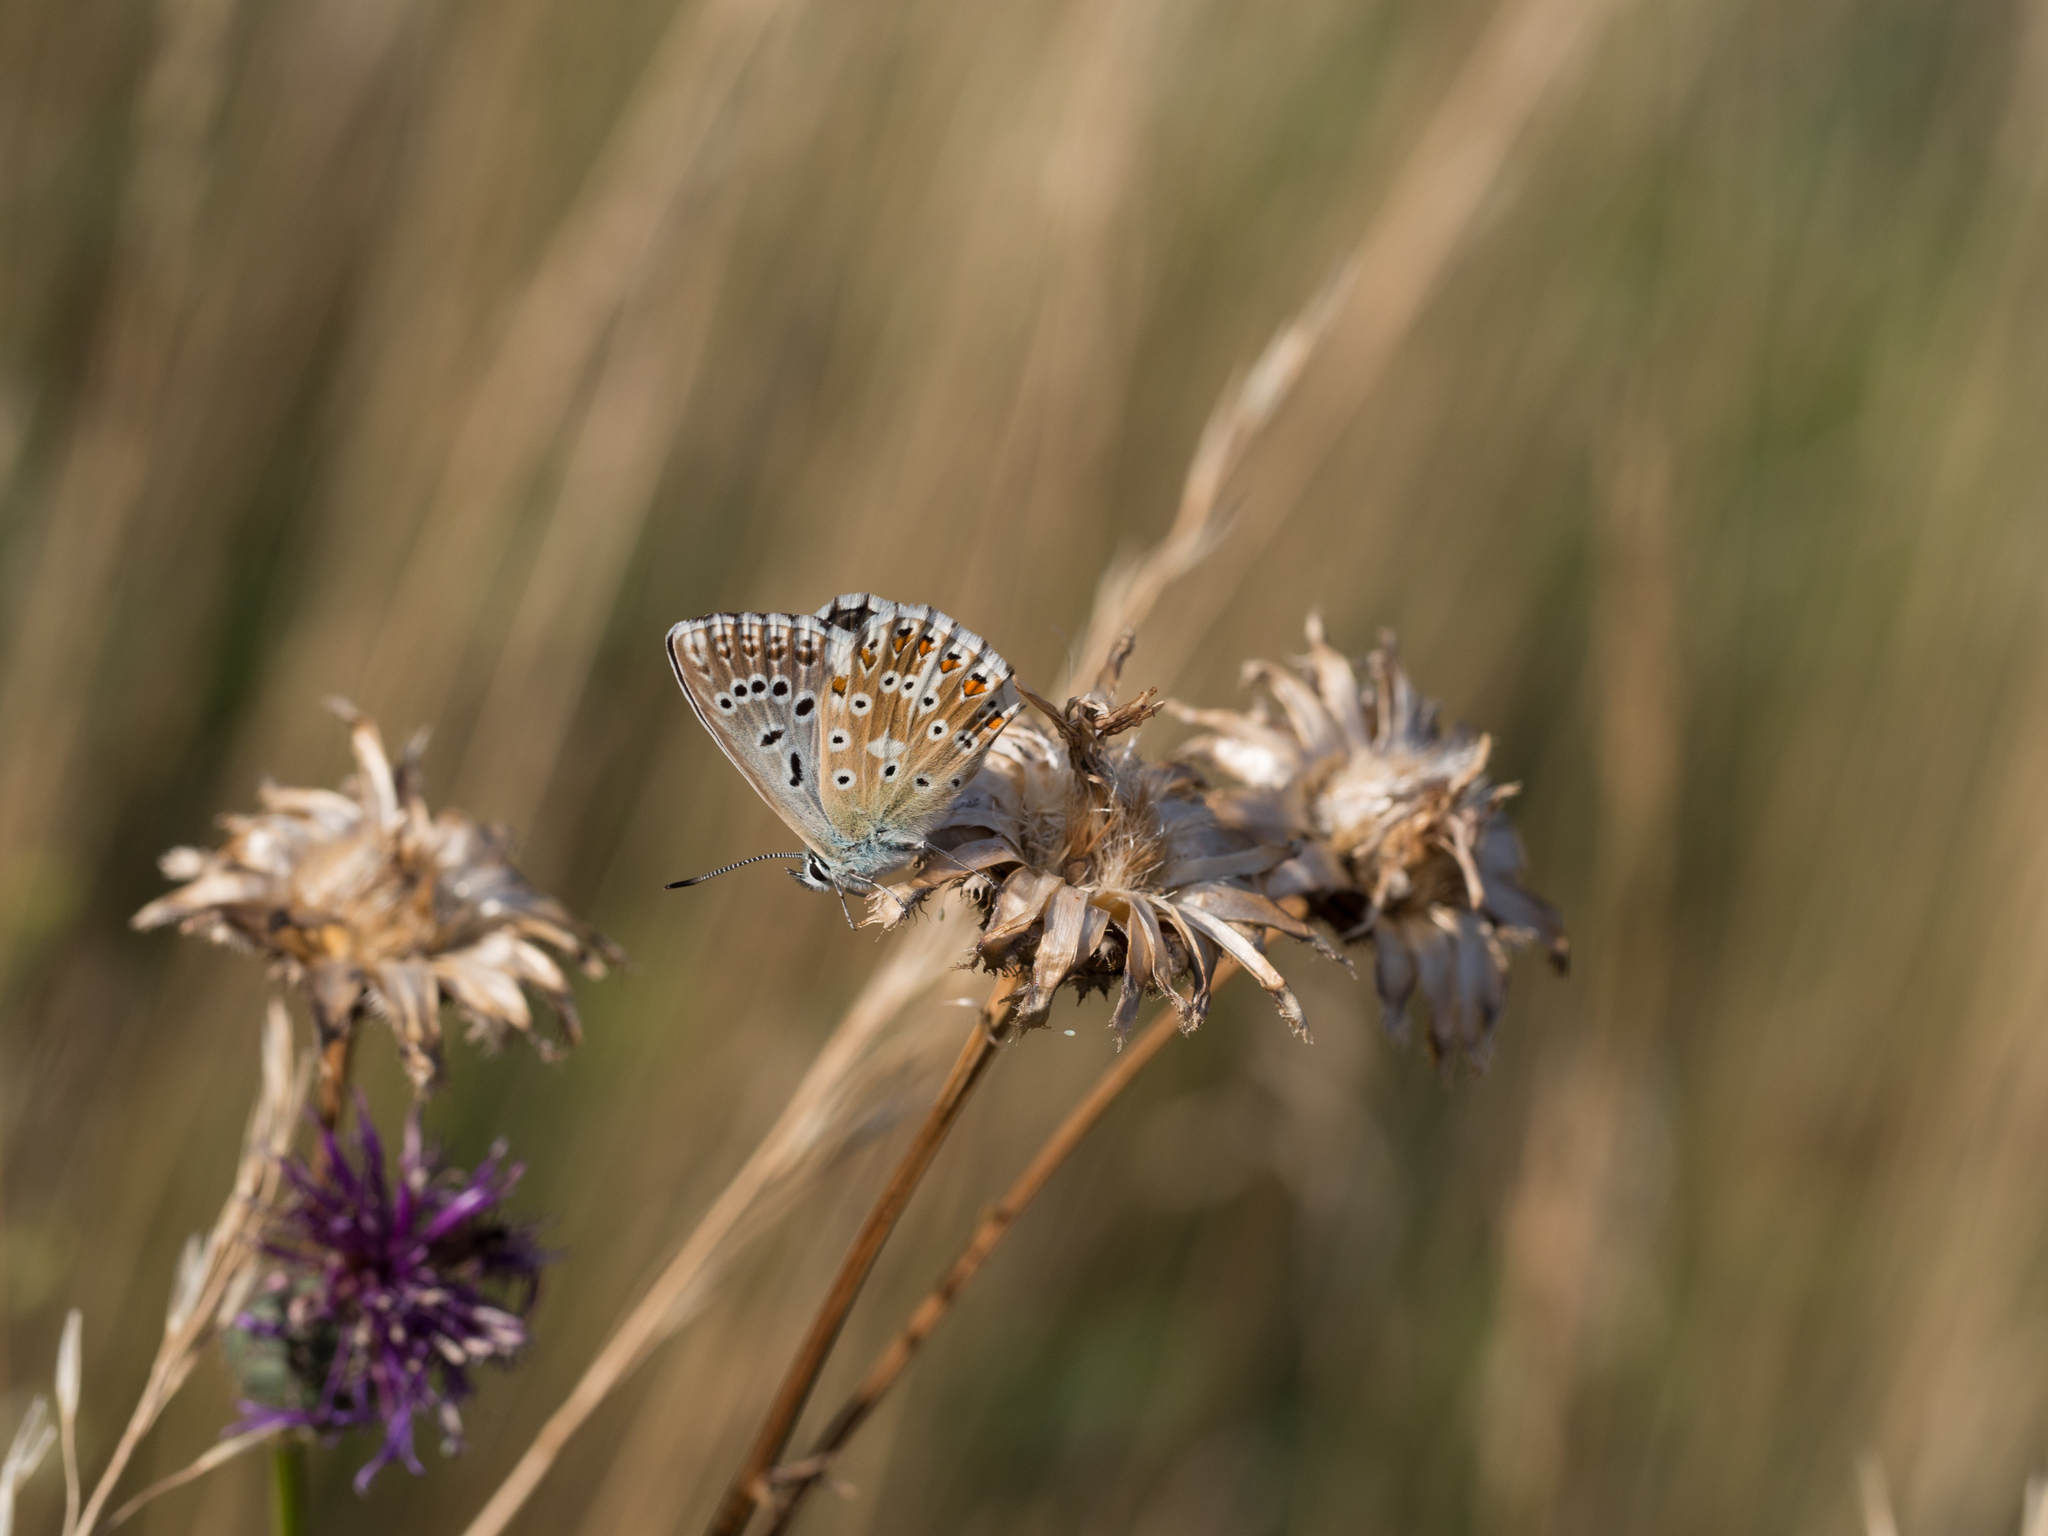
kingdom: Animalia
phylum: Arthropoda
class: Insecta
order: Lepidoptera
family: Lycaenidae
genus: Lysandra
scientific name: Lysandra coridon
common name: Chalkhill blue
